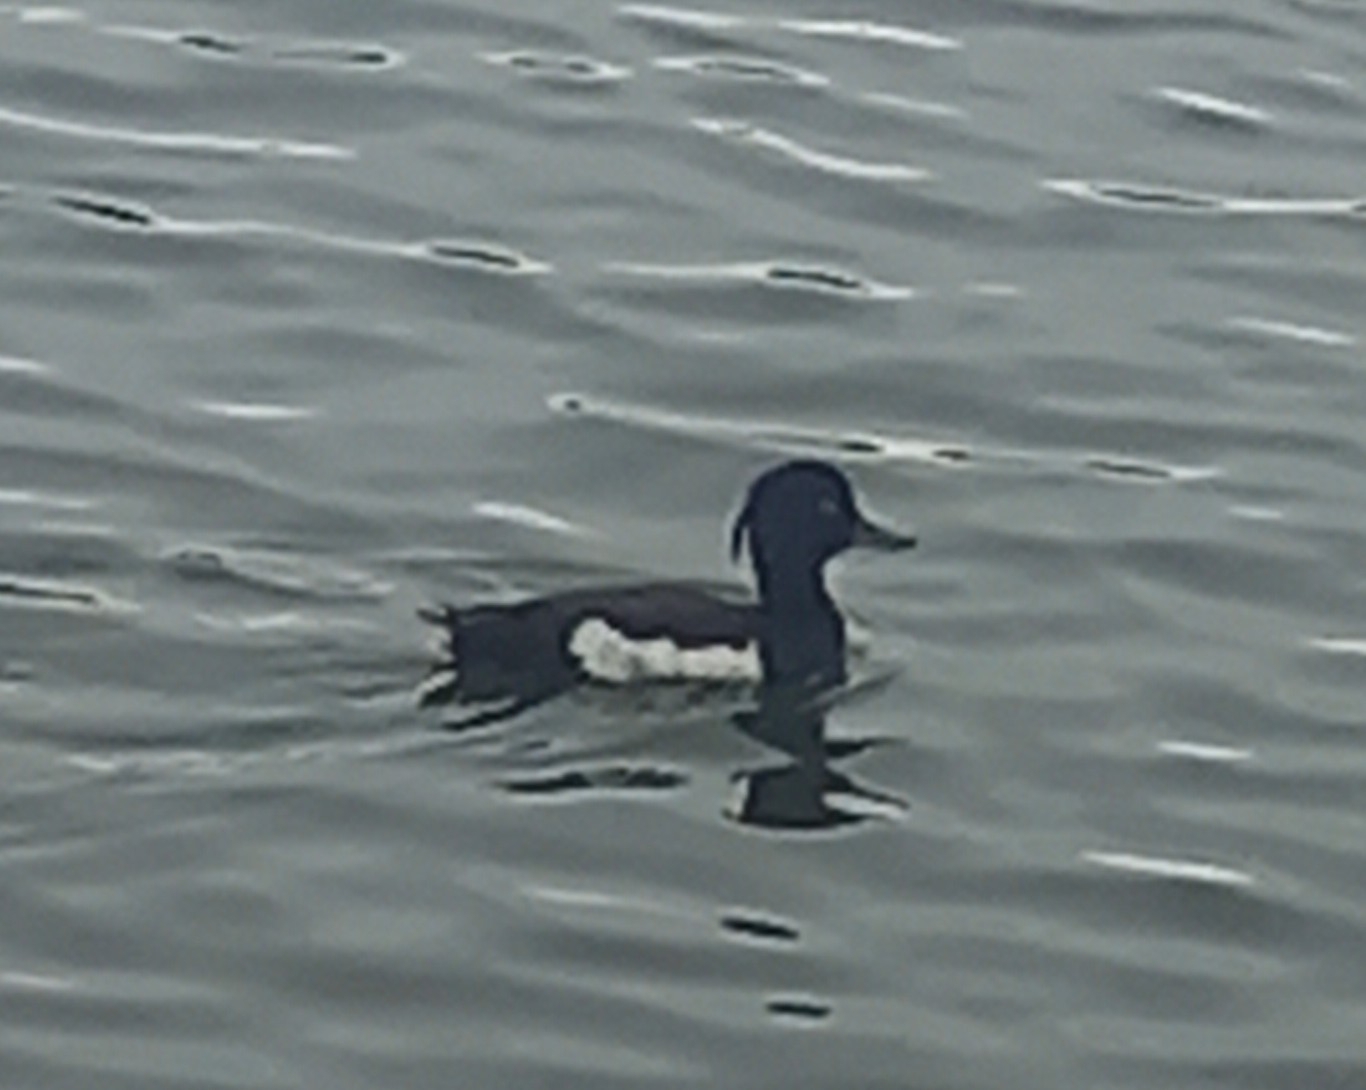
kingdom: Animalia
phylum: Chordata
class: Aves
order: Anseriformes
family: Anatidae
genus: Aythya
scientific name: Aythya fuligula
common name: Tufted duck
